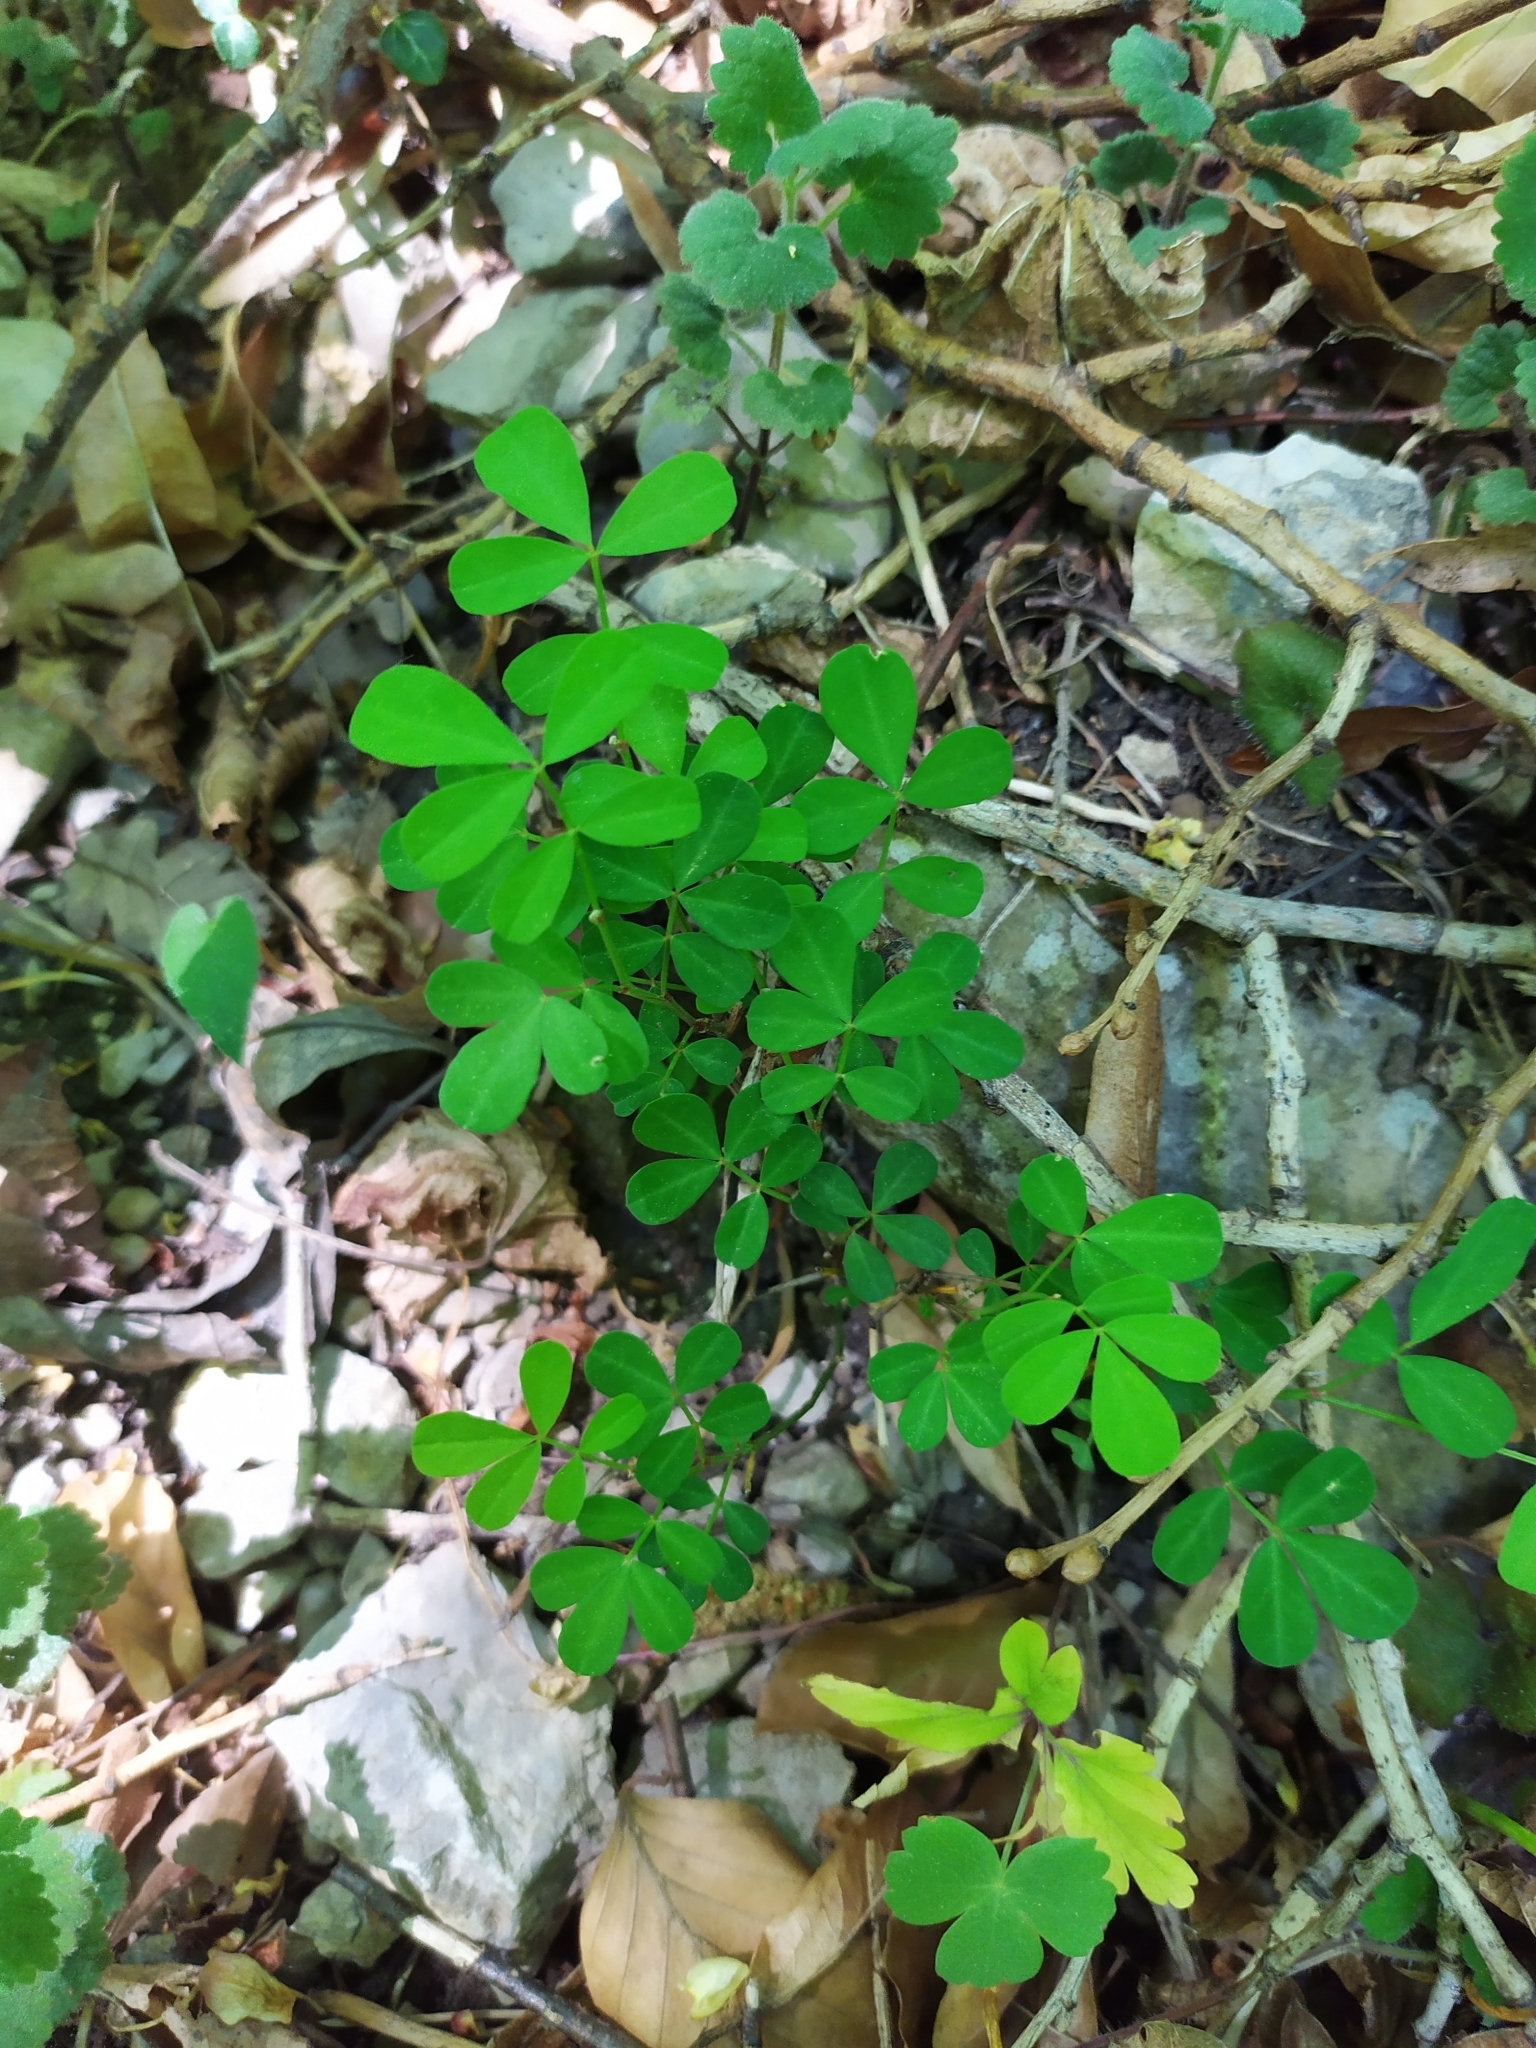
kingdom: Plantae
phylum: Tracheophyta
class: Magnoliopsida
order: Fabales
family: Fabaceae
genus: Hippocrepis
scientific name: Hippocrepis emerus
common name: Scorpion senna
